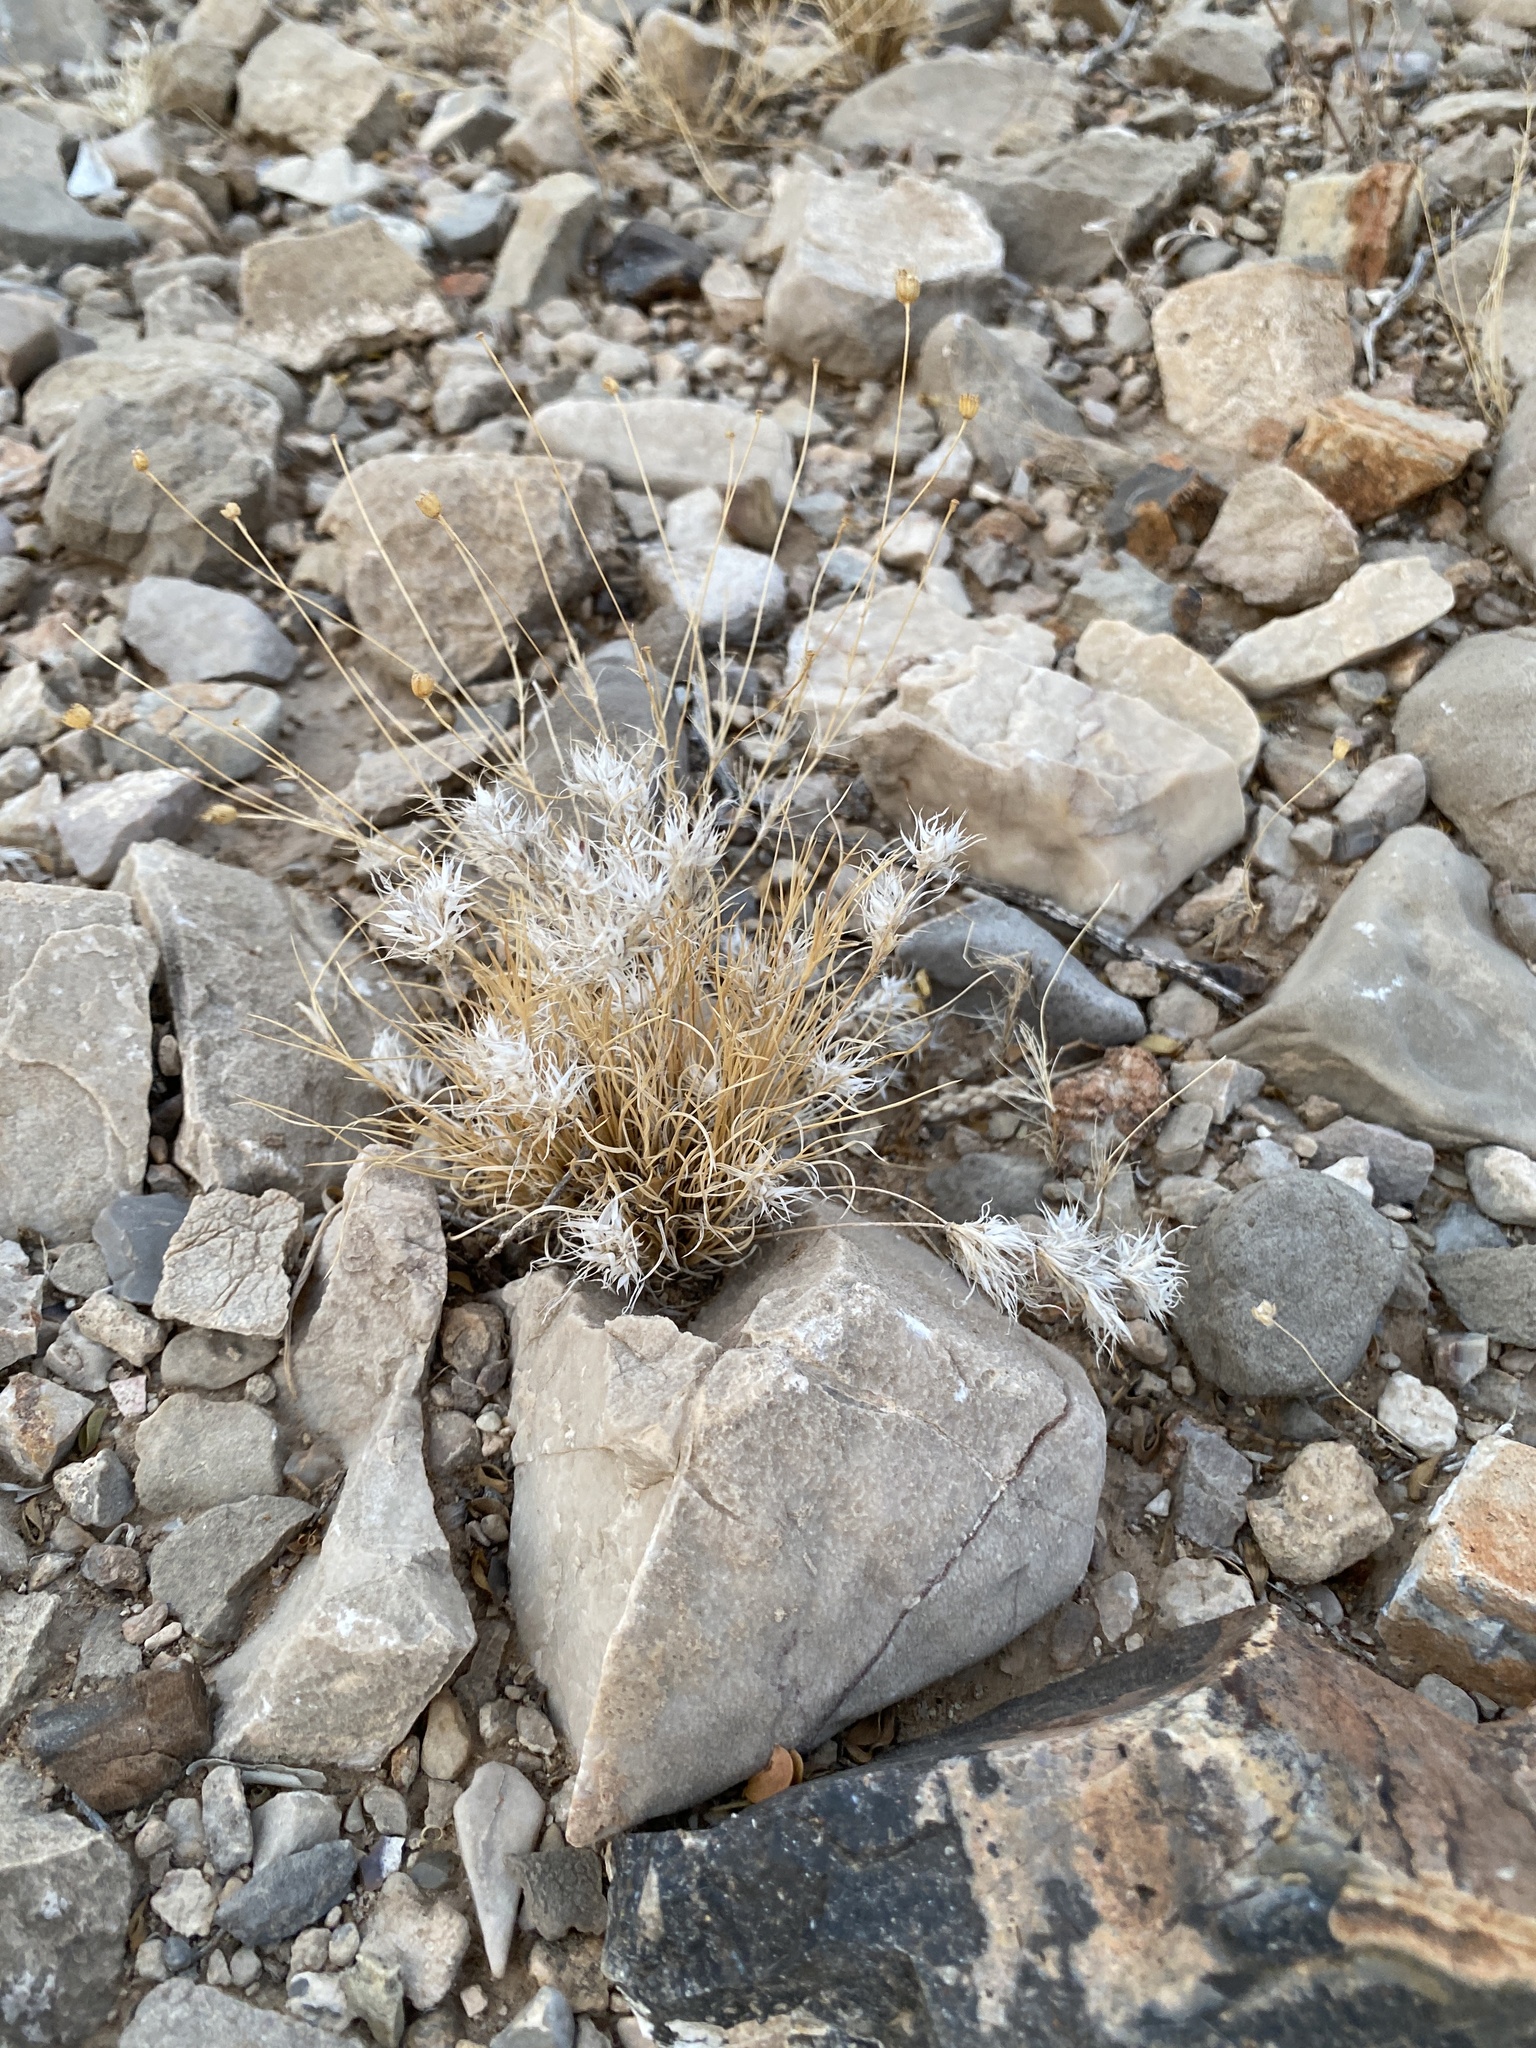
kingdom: Plantae
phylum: Tracheophyta
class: Liliopsida
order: Poales
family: Poaceae
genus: Dasyochloa
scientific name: Dasyochloa pulchella
